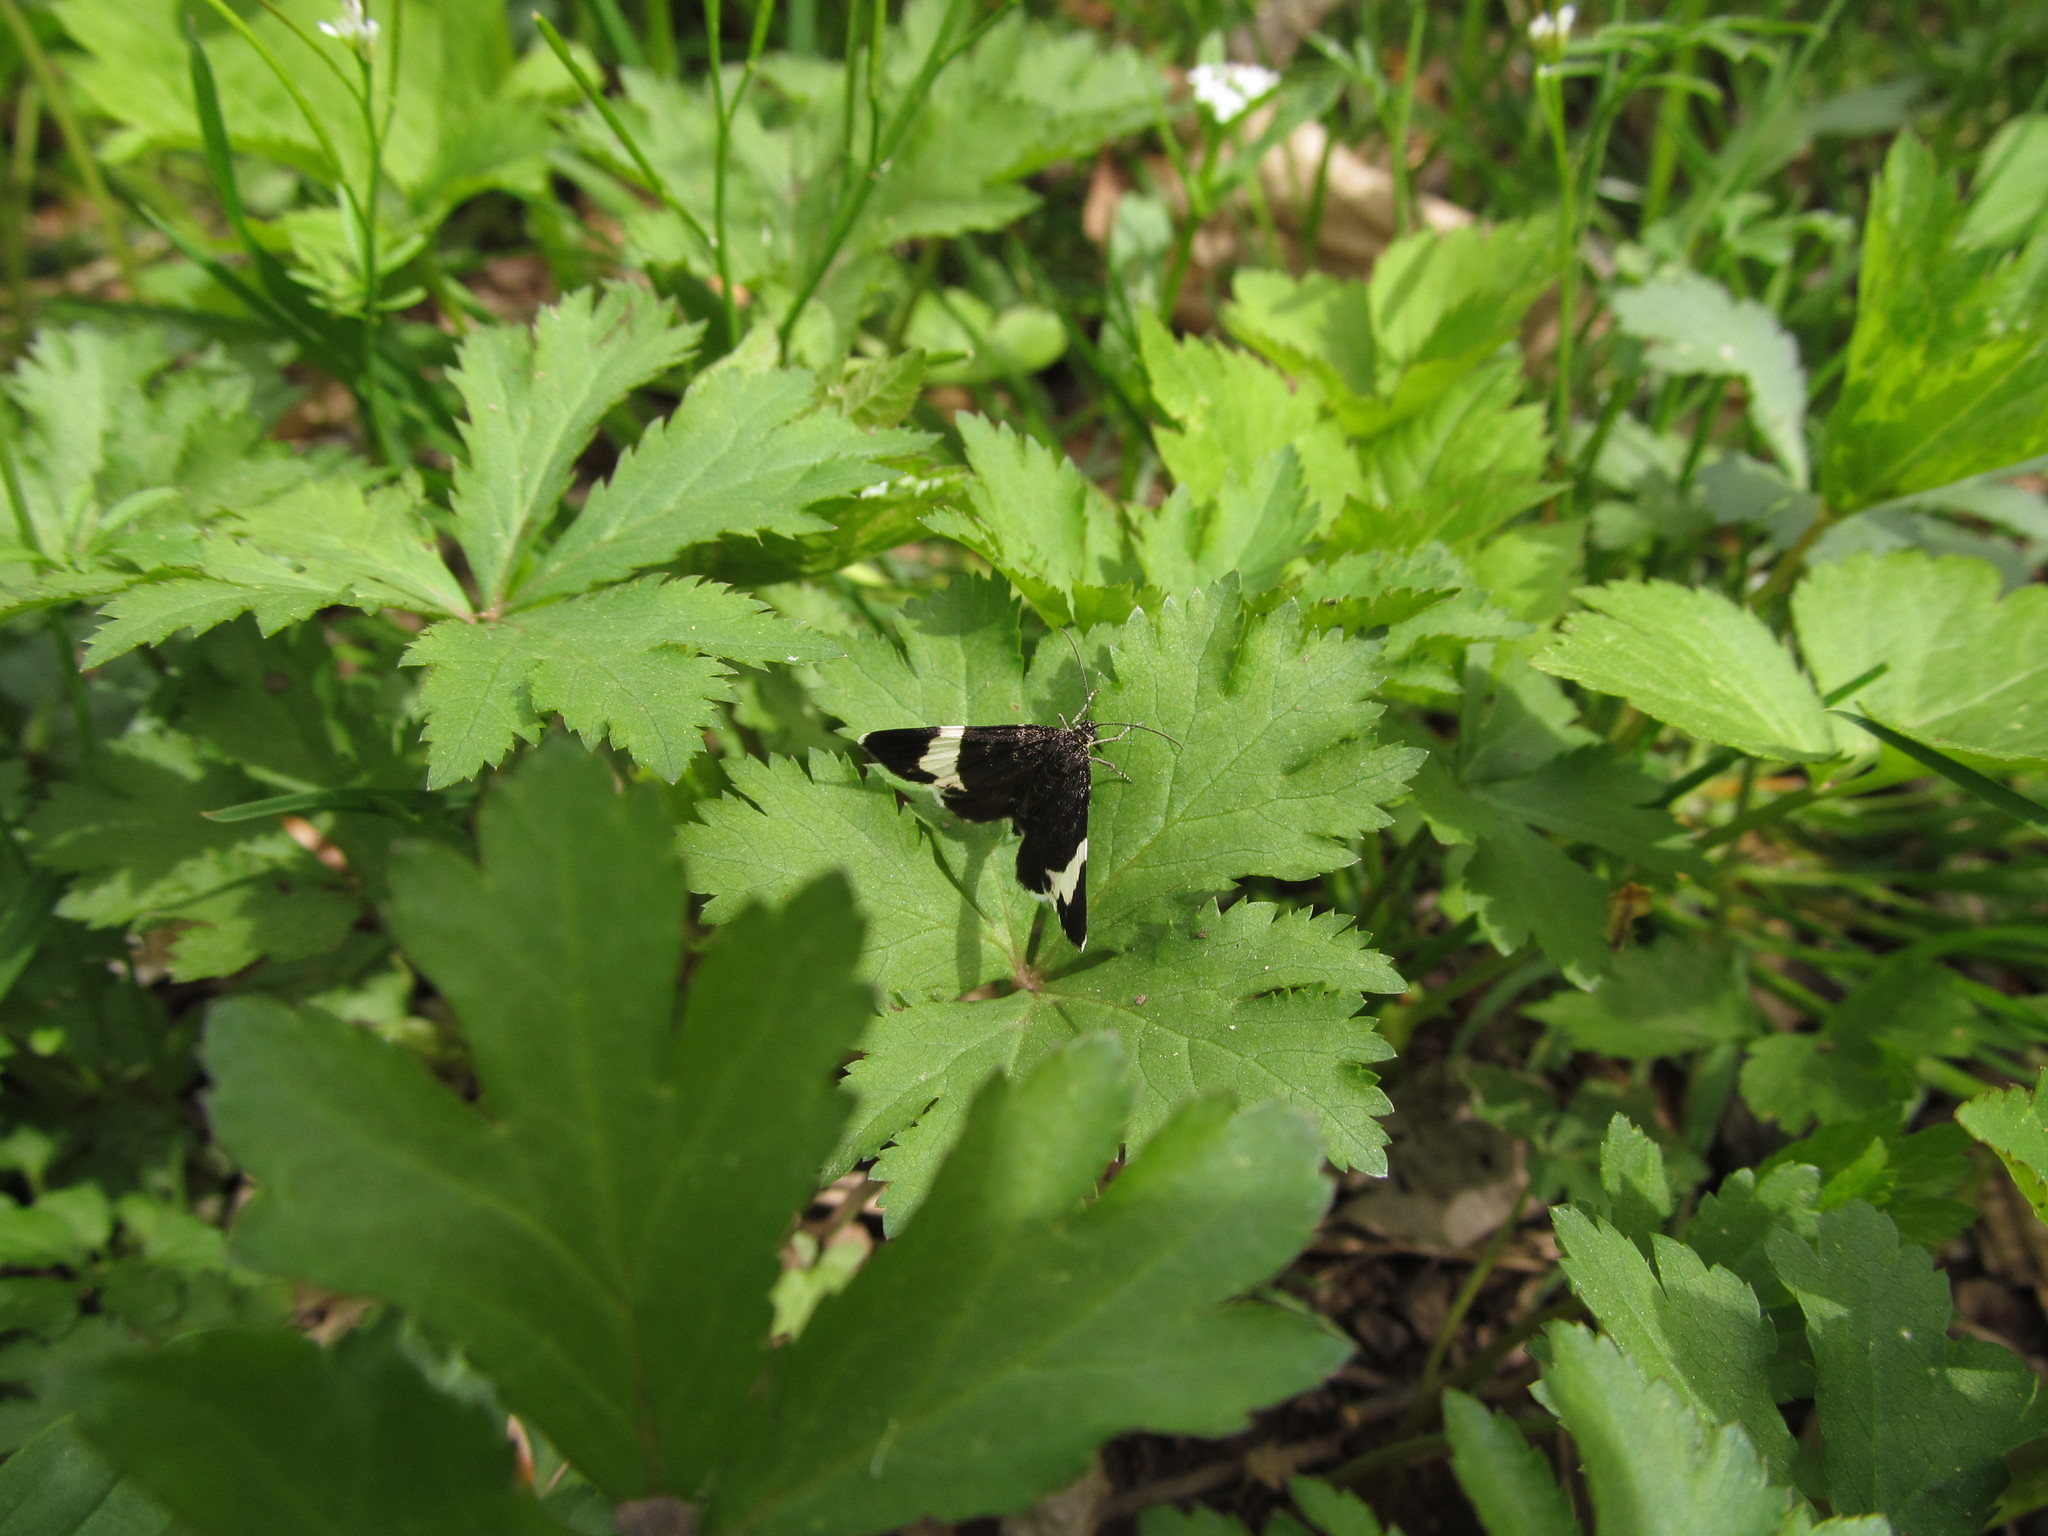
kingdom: Animalia
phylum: Arthropoda
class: Insecta
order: Lepidoptera
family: Geometridae
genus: Trichodezia
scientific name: Trichodezia albovittata
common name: White striped black
